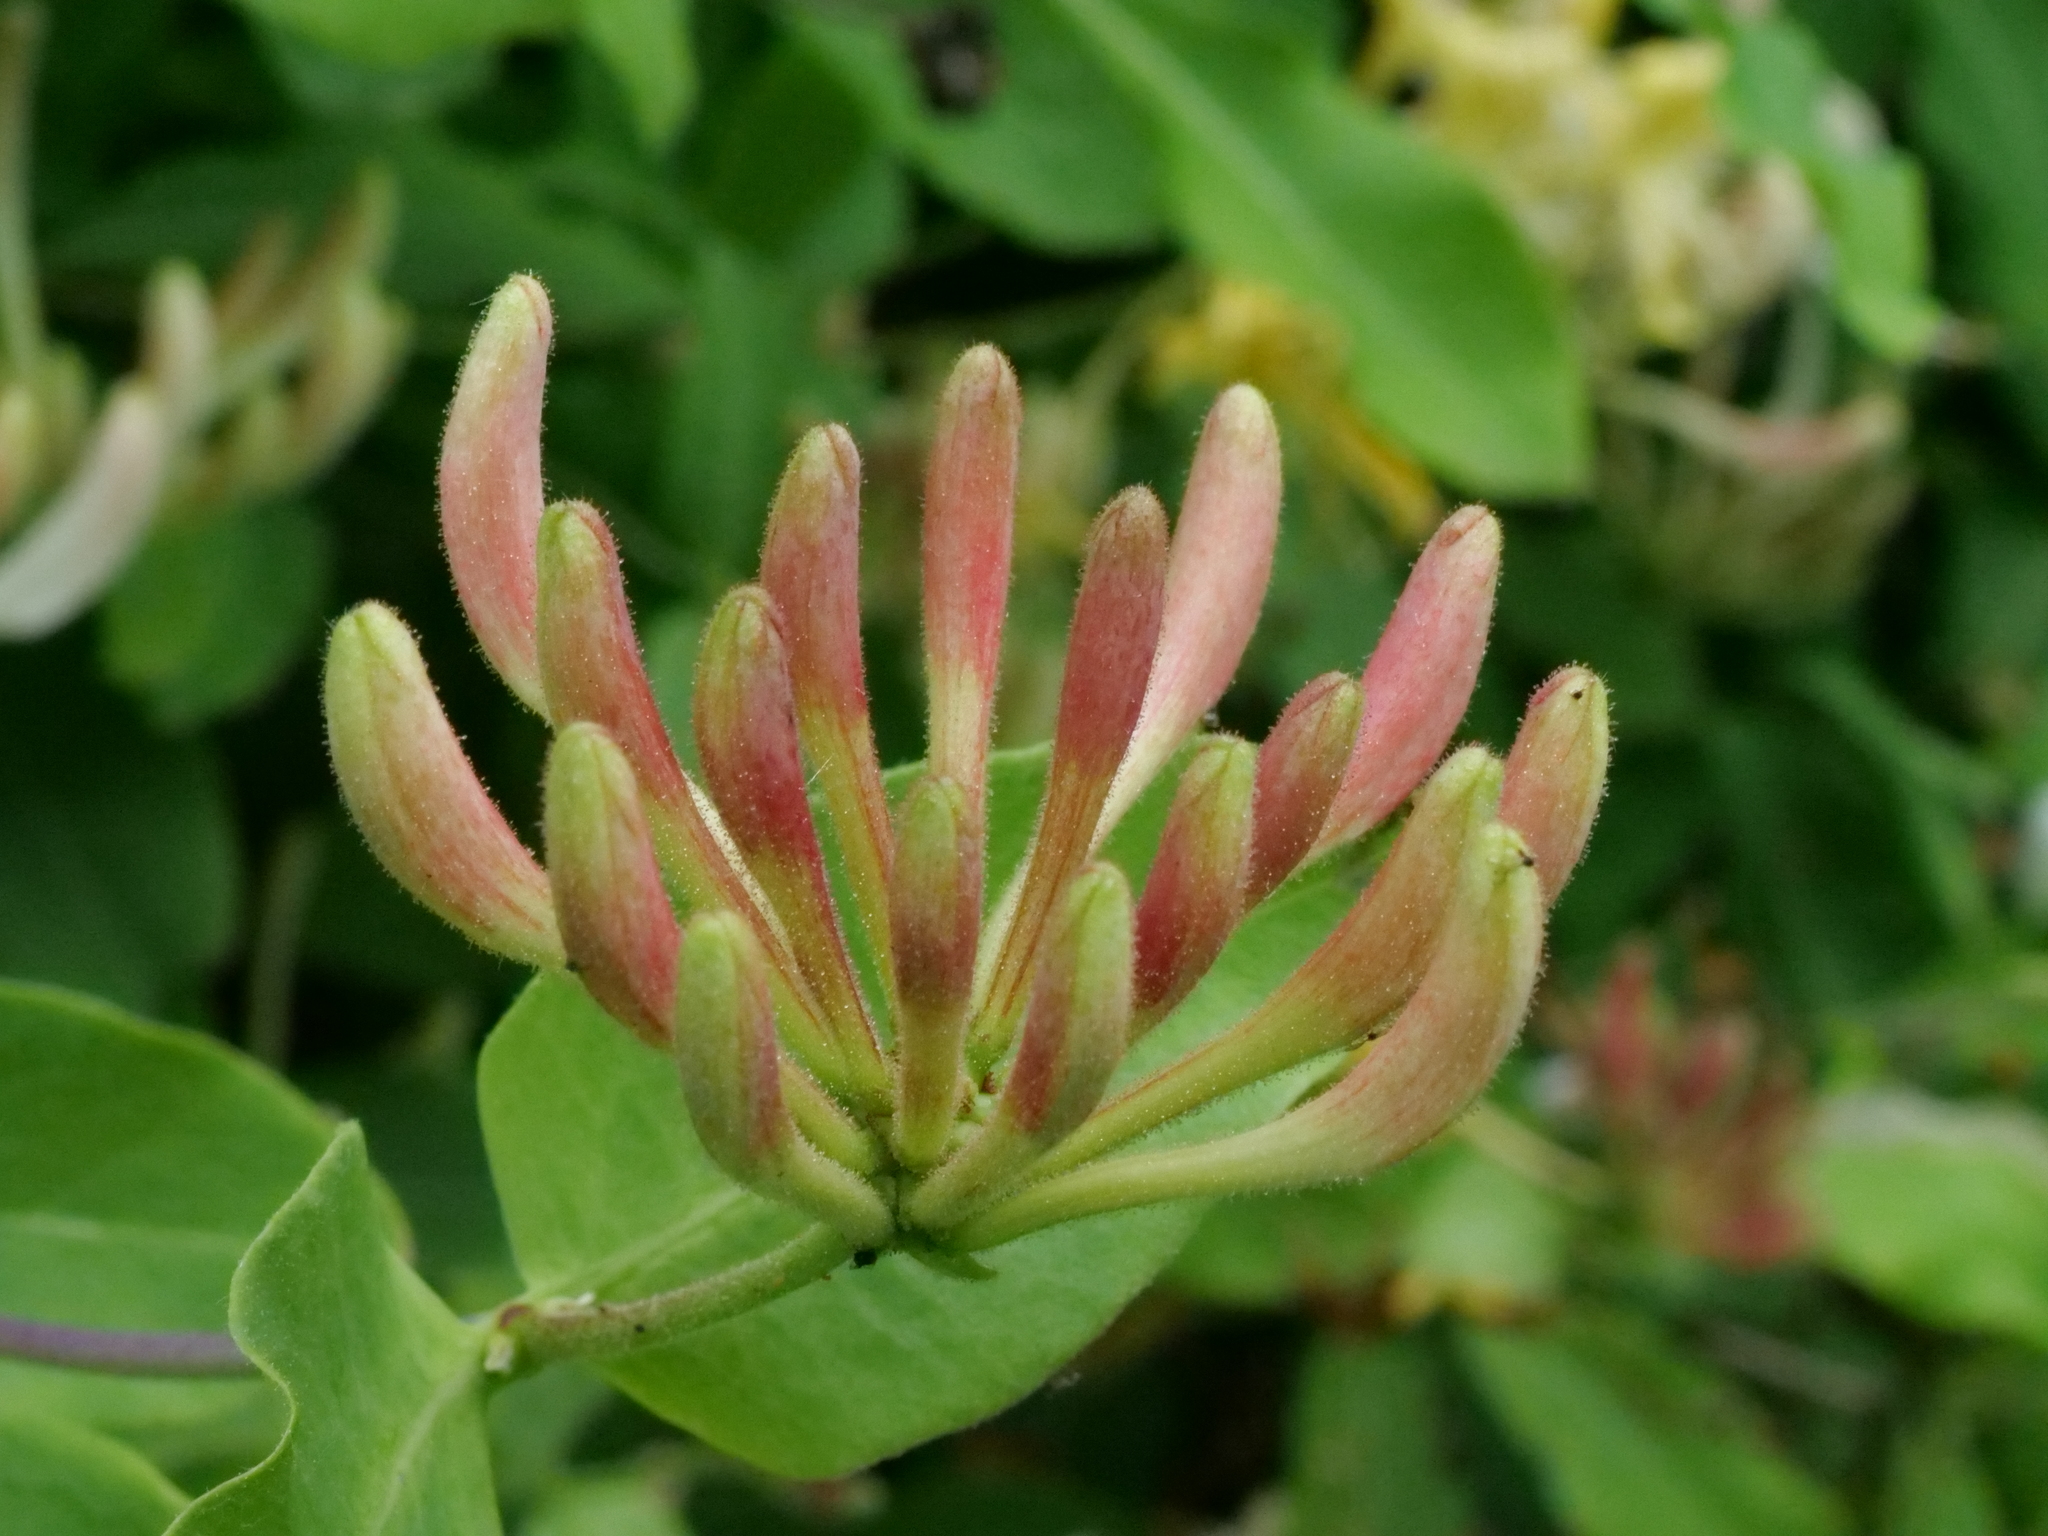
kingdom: Plantae
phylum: Tracheophyta
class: Magnoliopsida
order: Dipsacales
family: Caprifoliaceae
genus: Lonicera
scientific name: Lonicera periclymenum
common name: European honeysuckle
